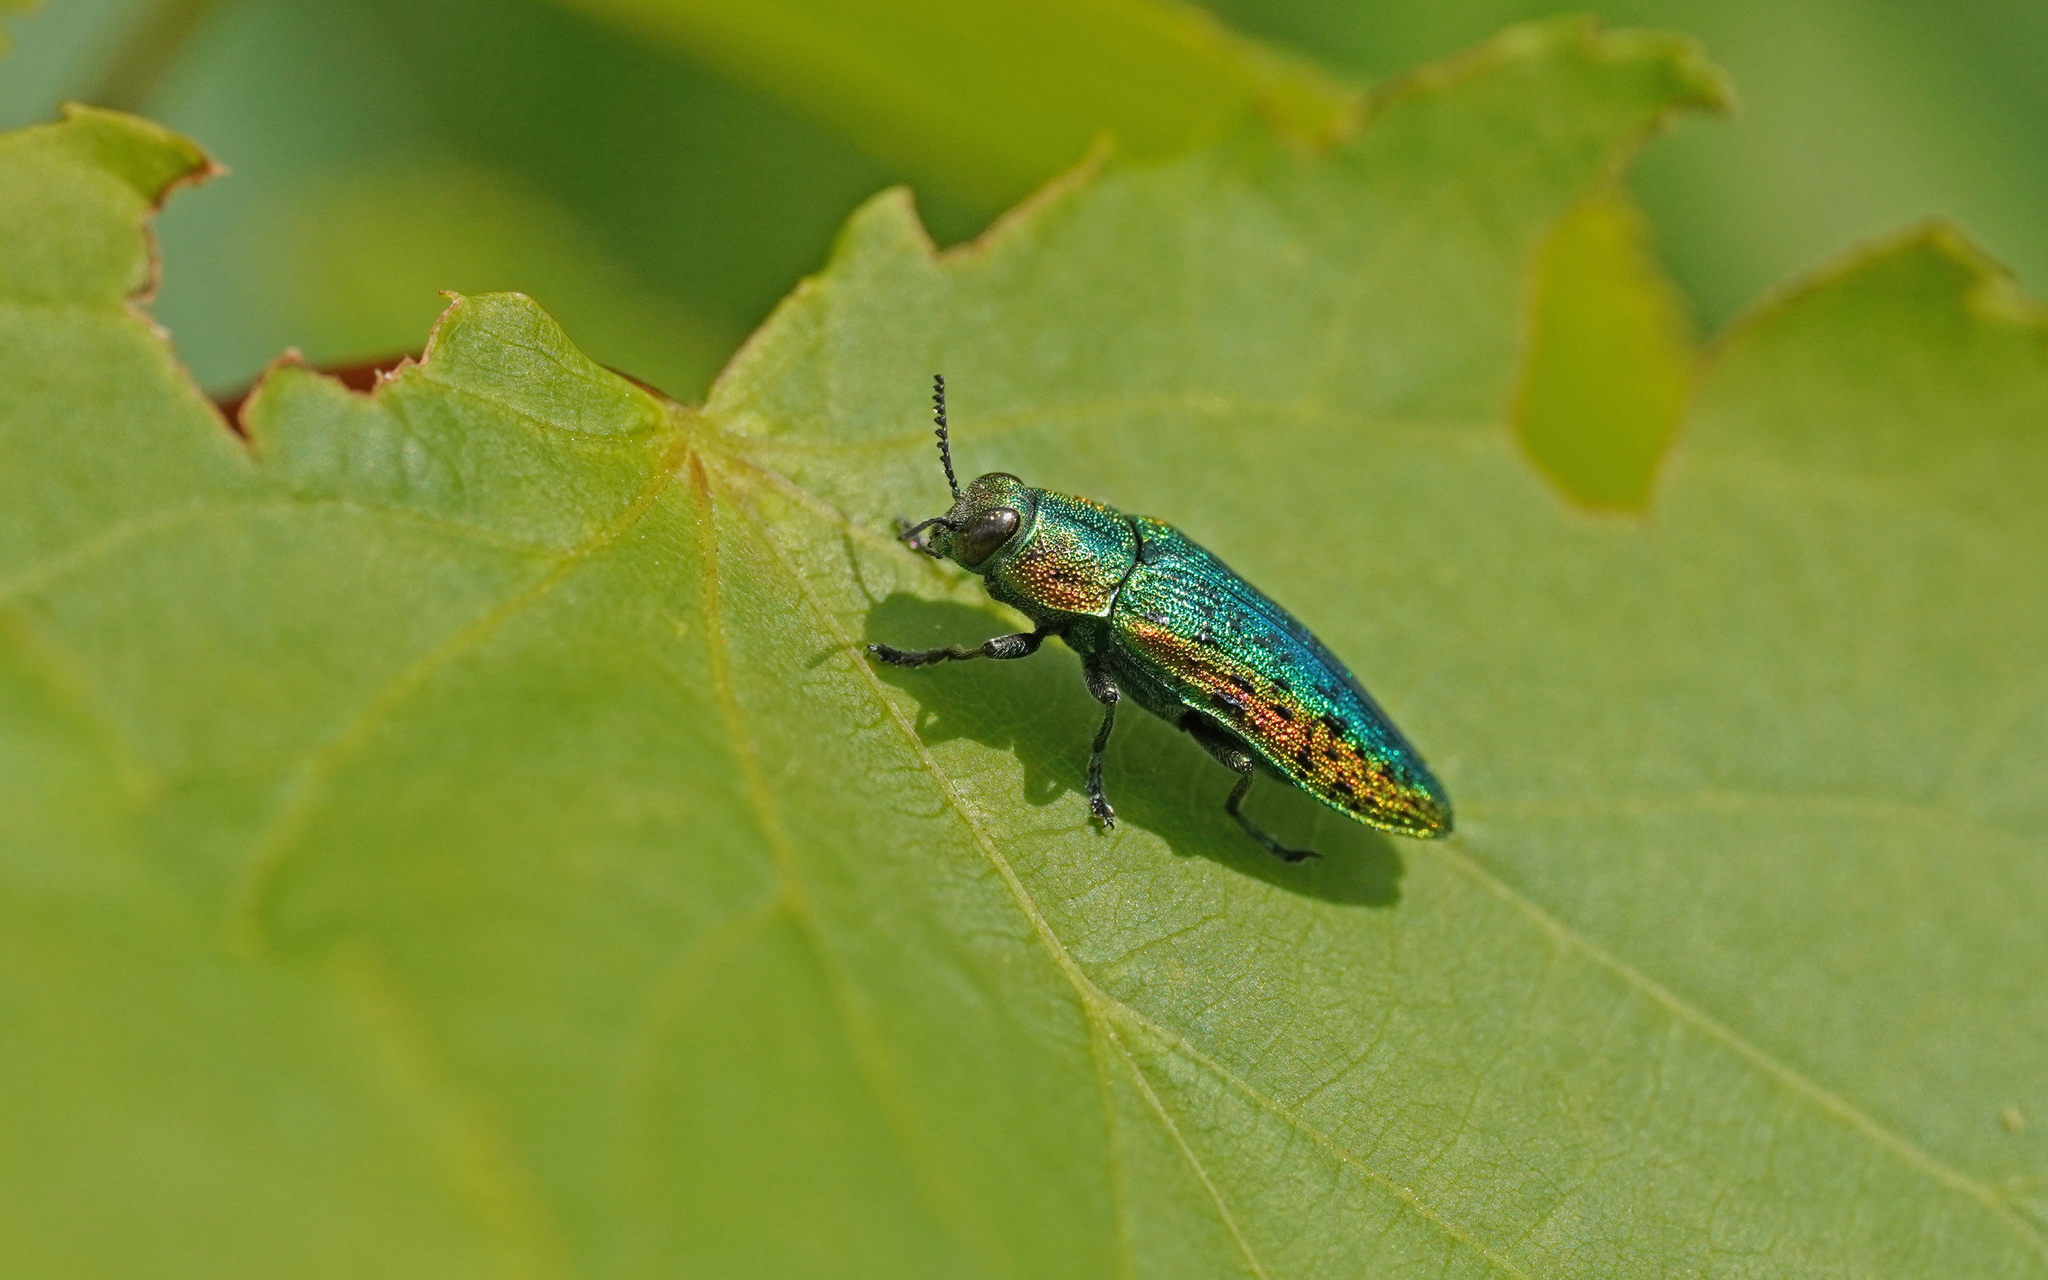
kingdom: Animalia
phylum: Arthropoda
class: Insecta
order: Coleoptera
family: Buprestidae
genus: Lamprodila
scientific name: Lamprodila rutilans
